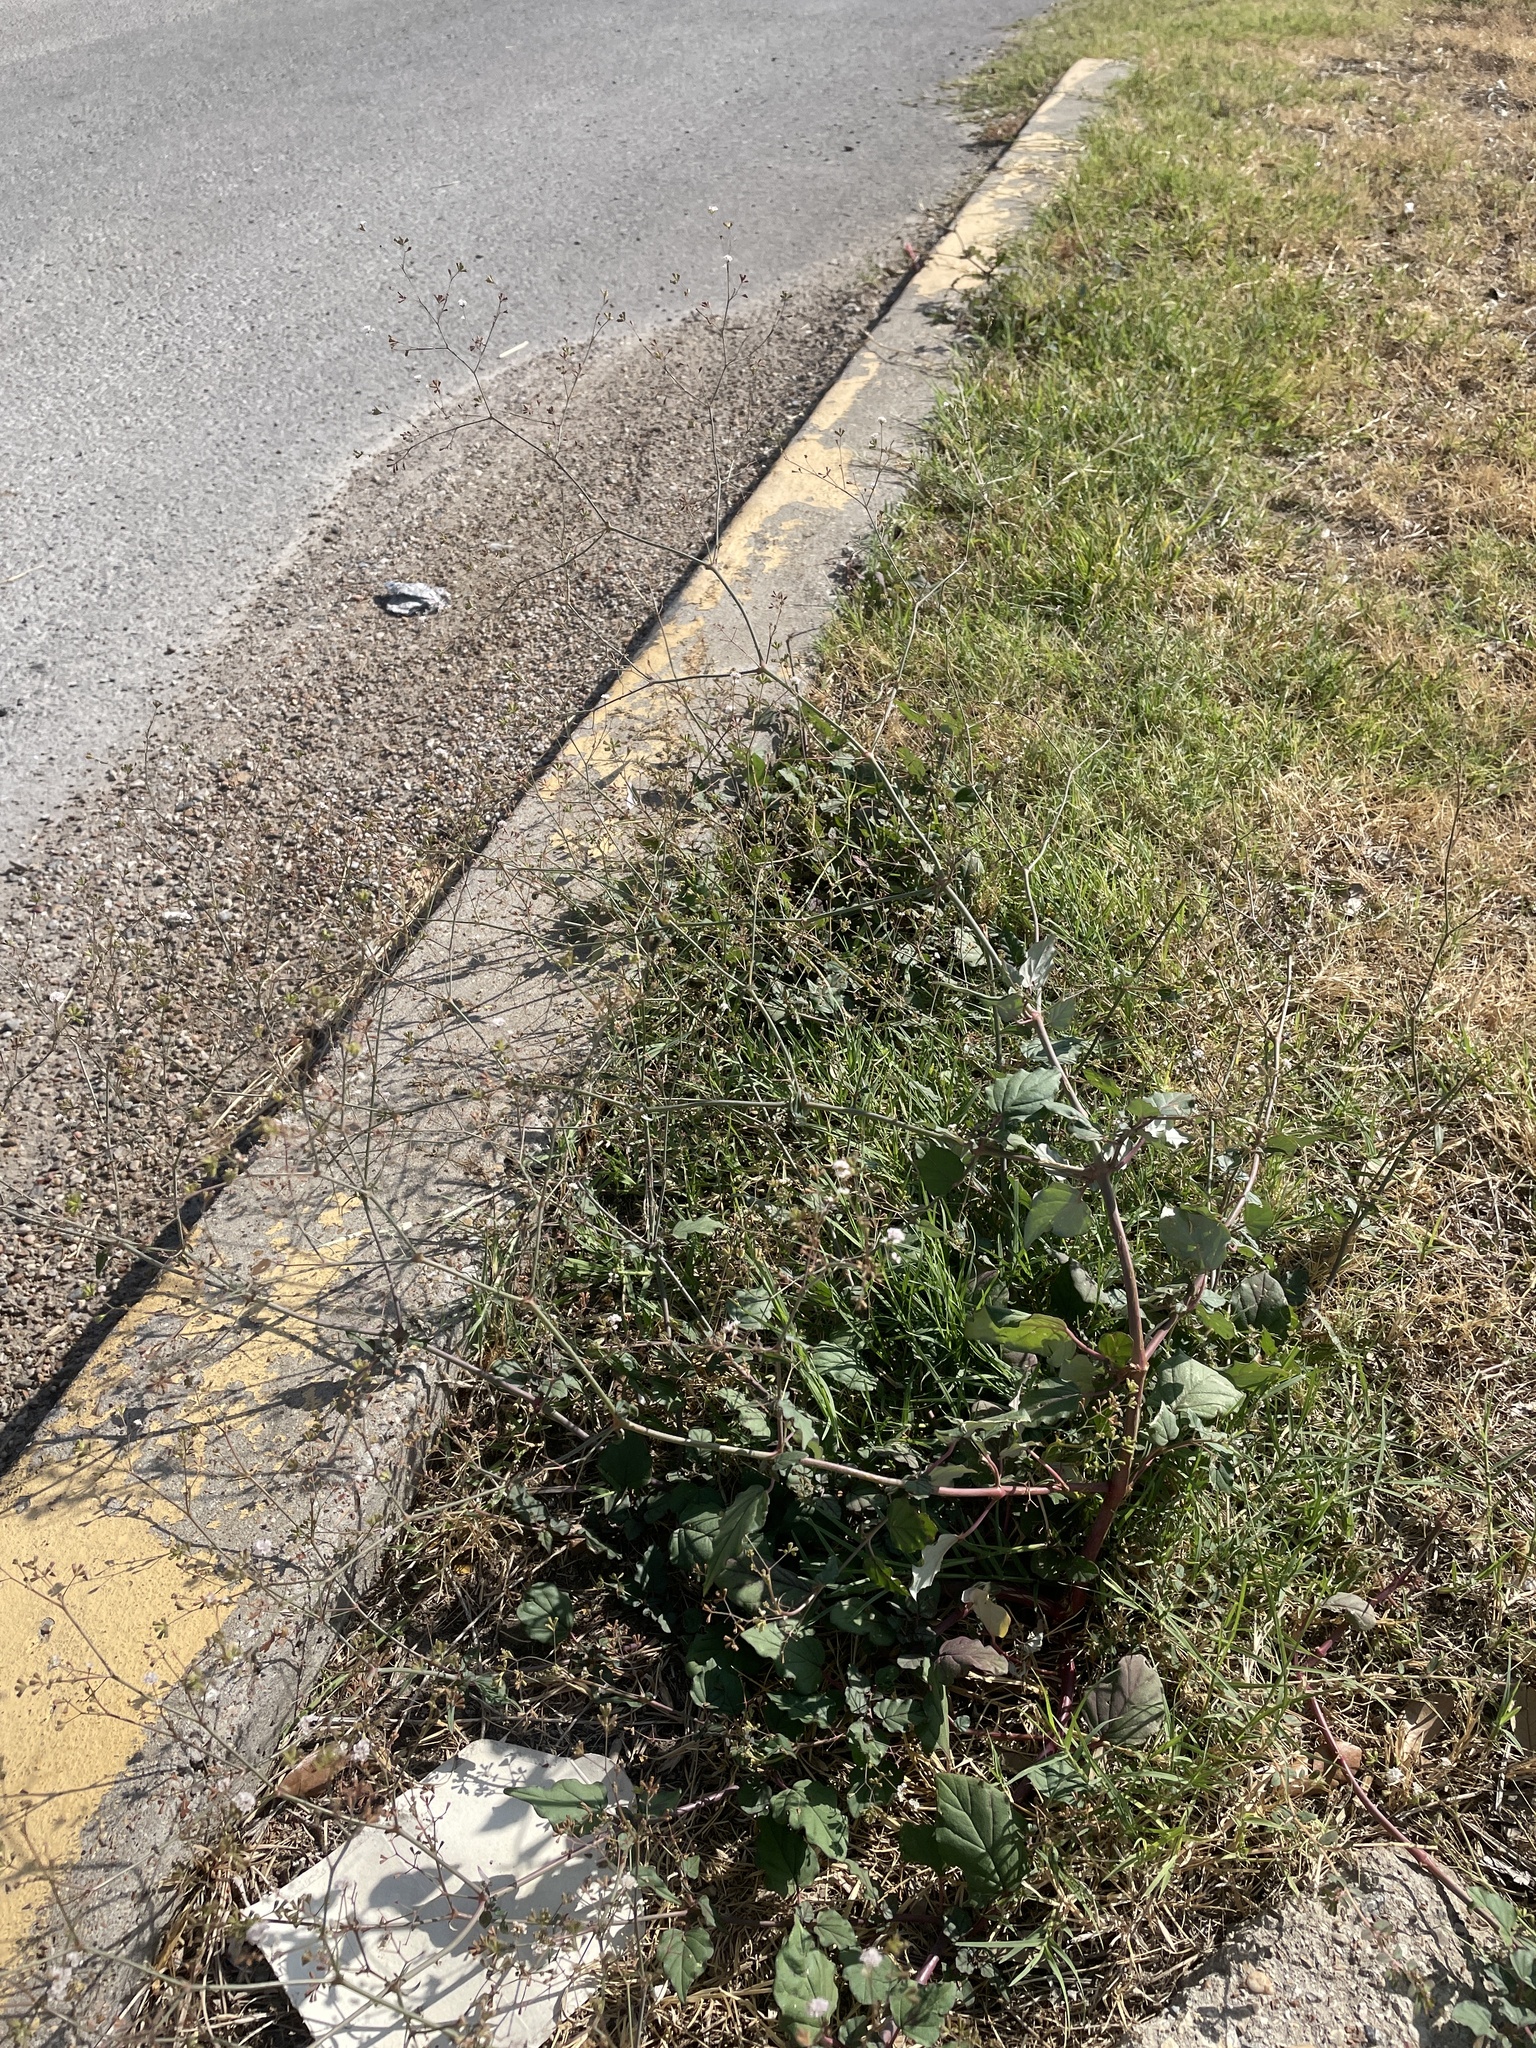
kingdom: Plantae
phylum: Tracheophyta
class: Magnoliopsida
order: Caryophyllales
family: Nyctaginaceae
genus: Boerhavia
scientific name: Boerhavia erecta
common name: Erect spiderling
